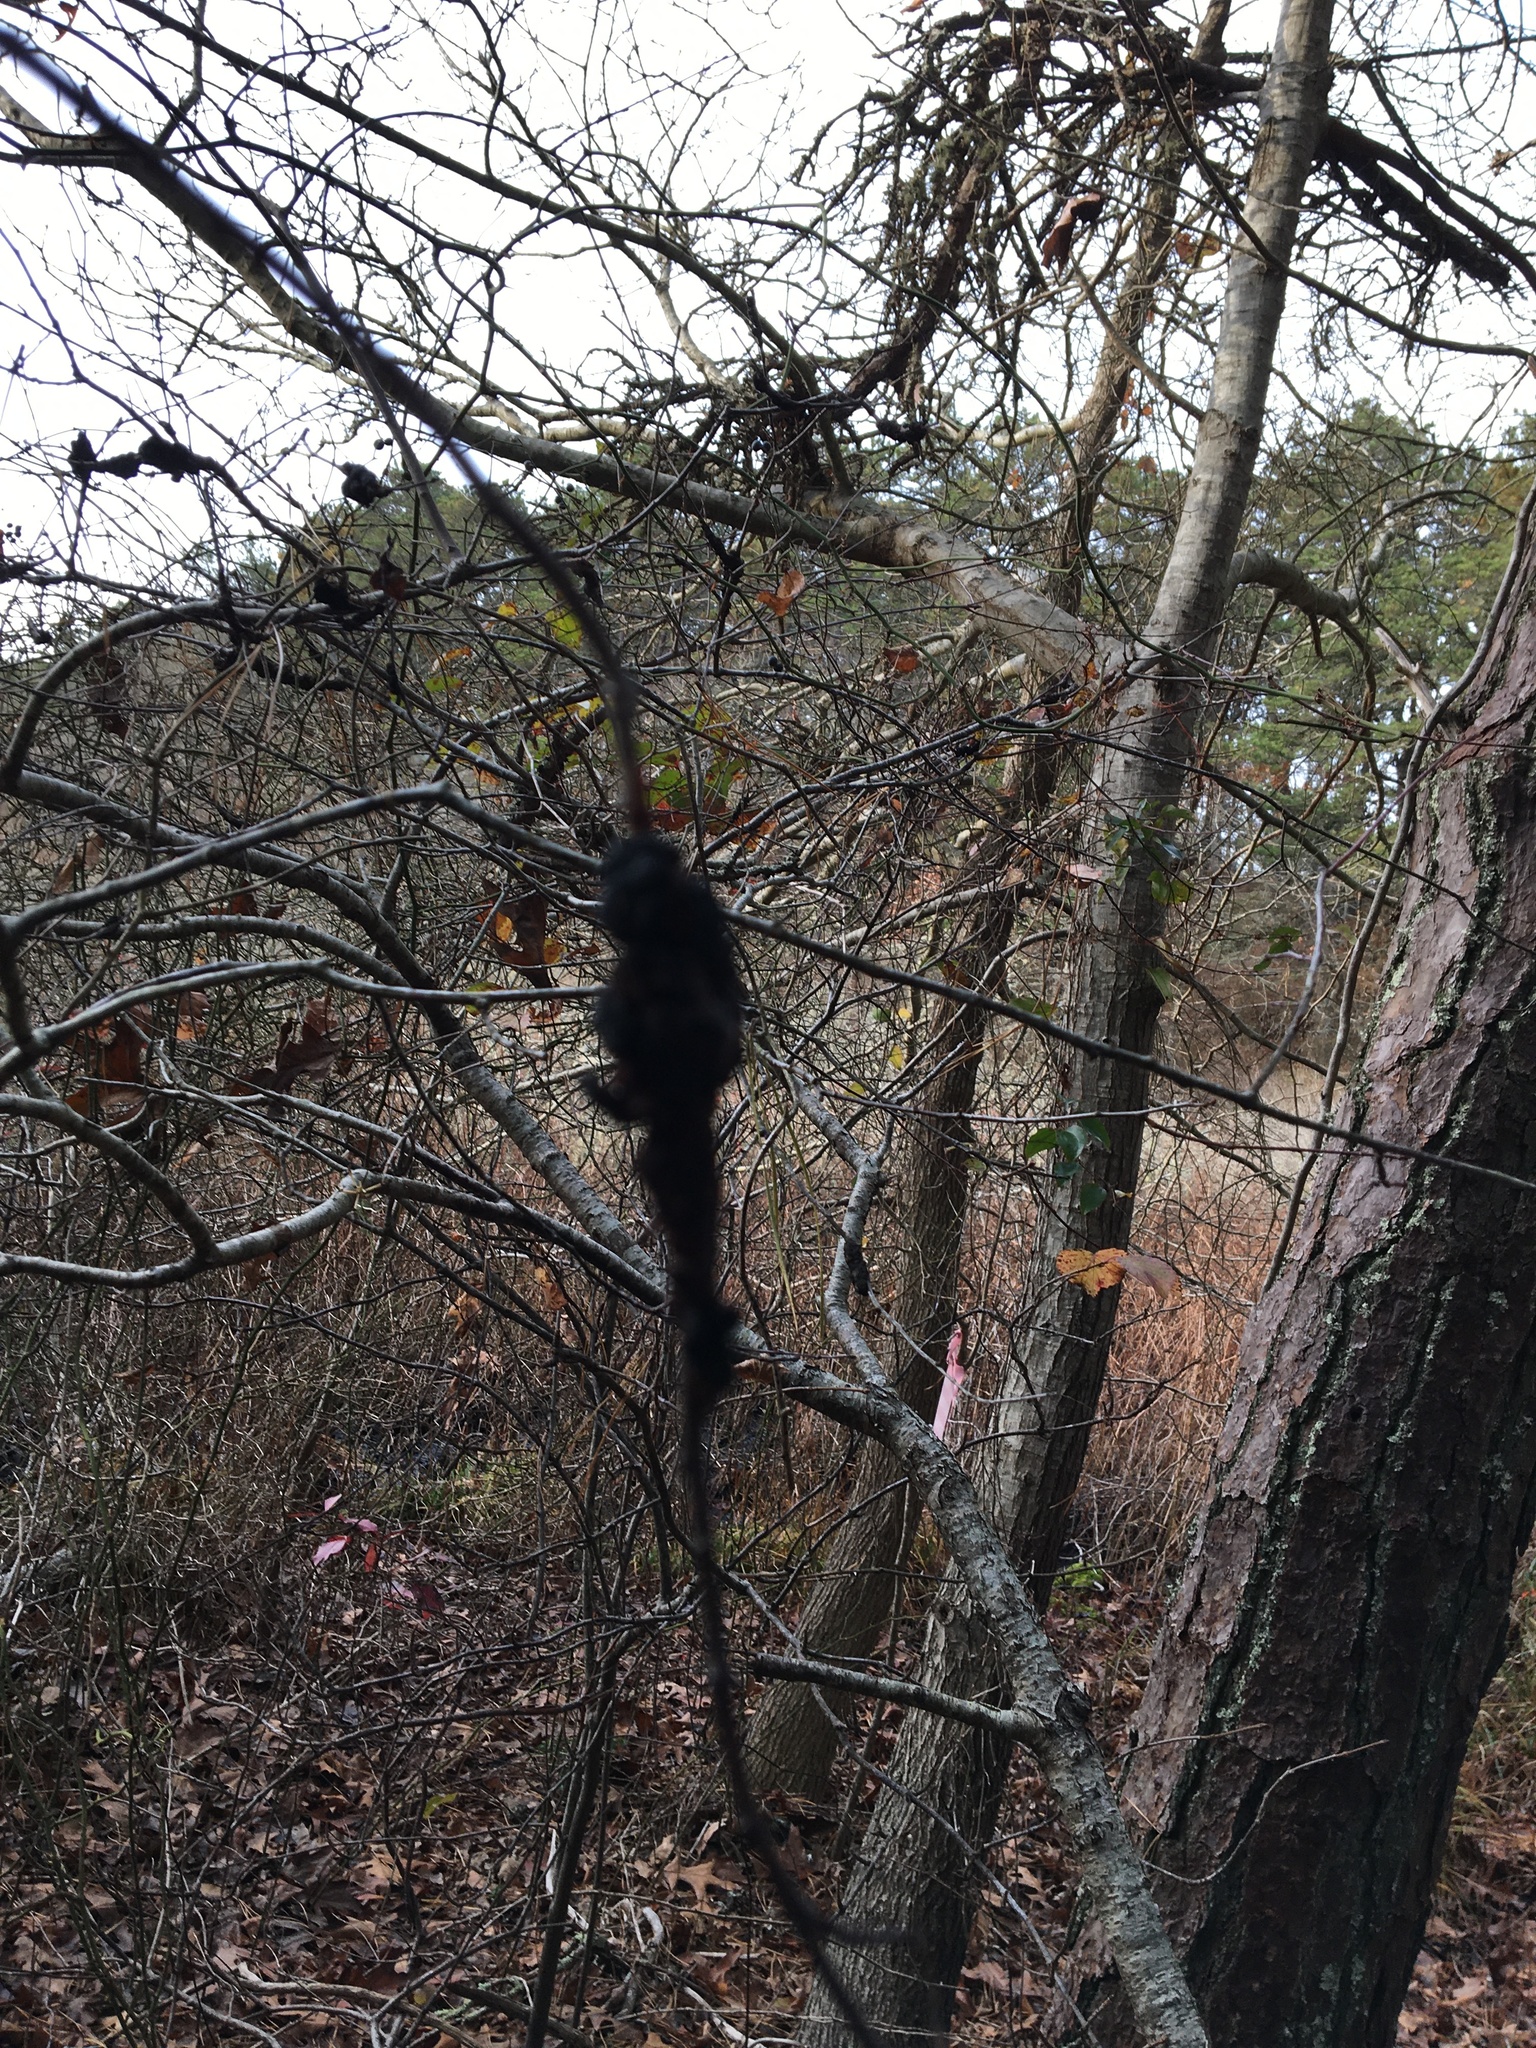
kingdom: Fungi
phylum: Ascomycota
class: Dothideomycetes
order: Venturiales
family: Venturiaceae
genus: Apiosporina
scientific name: Apiosporina morbosa
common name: Black knot
